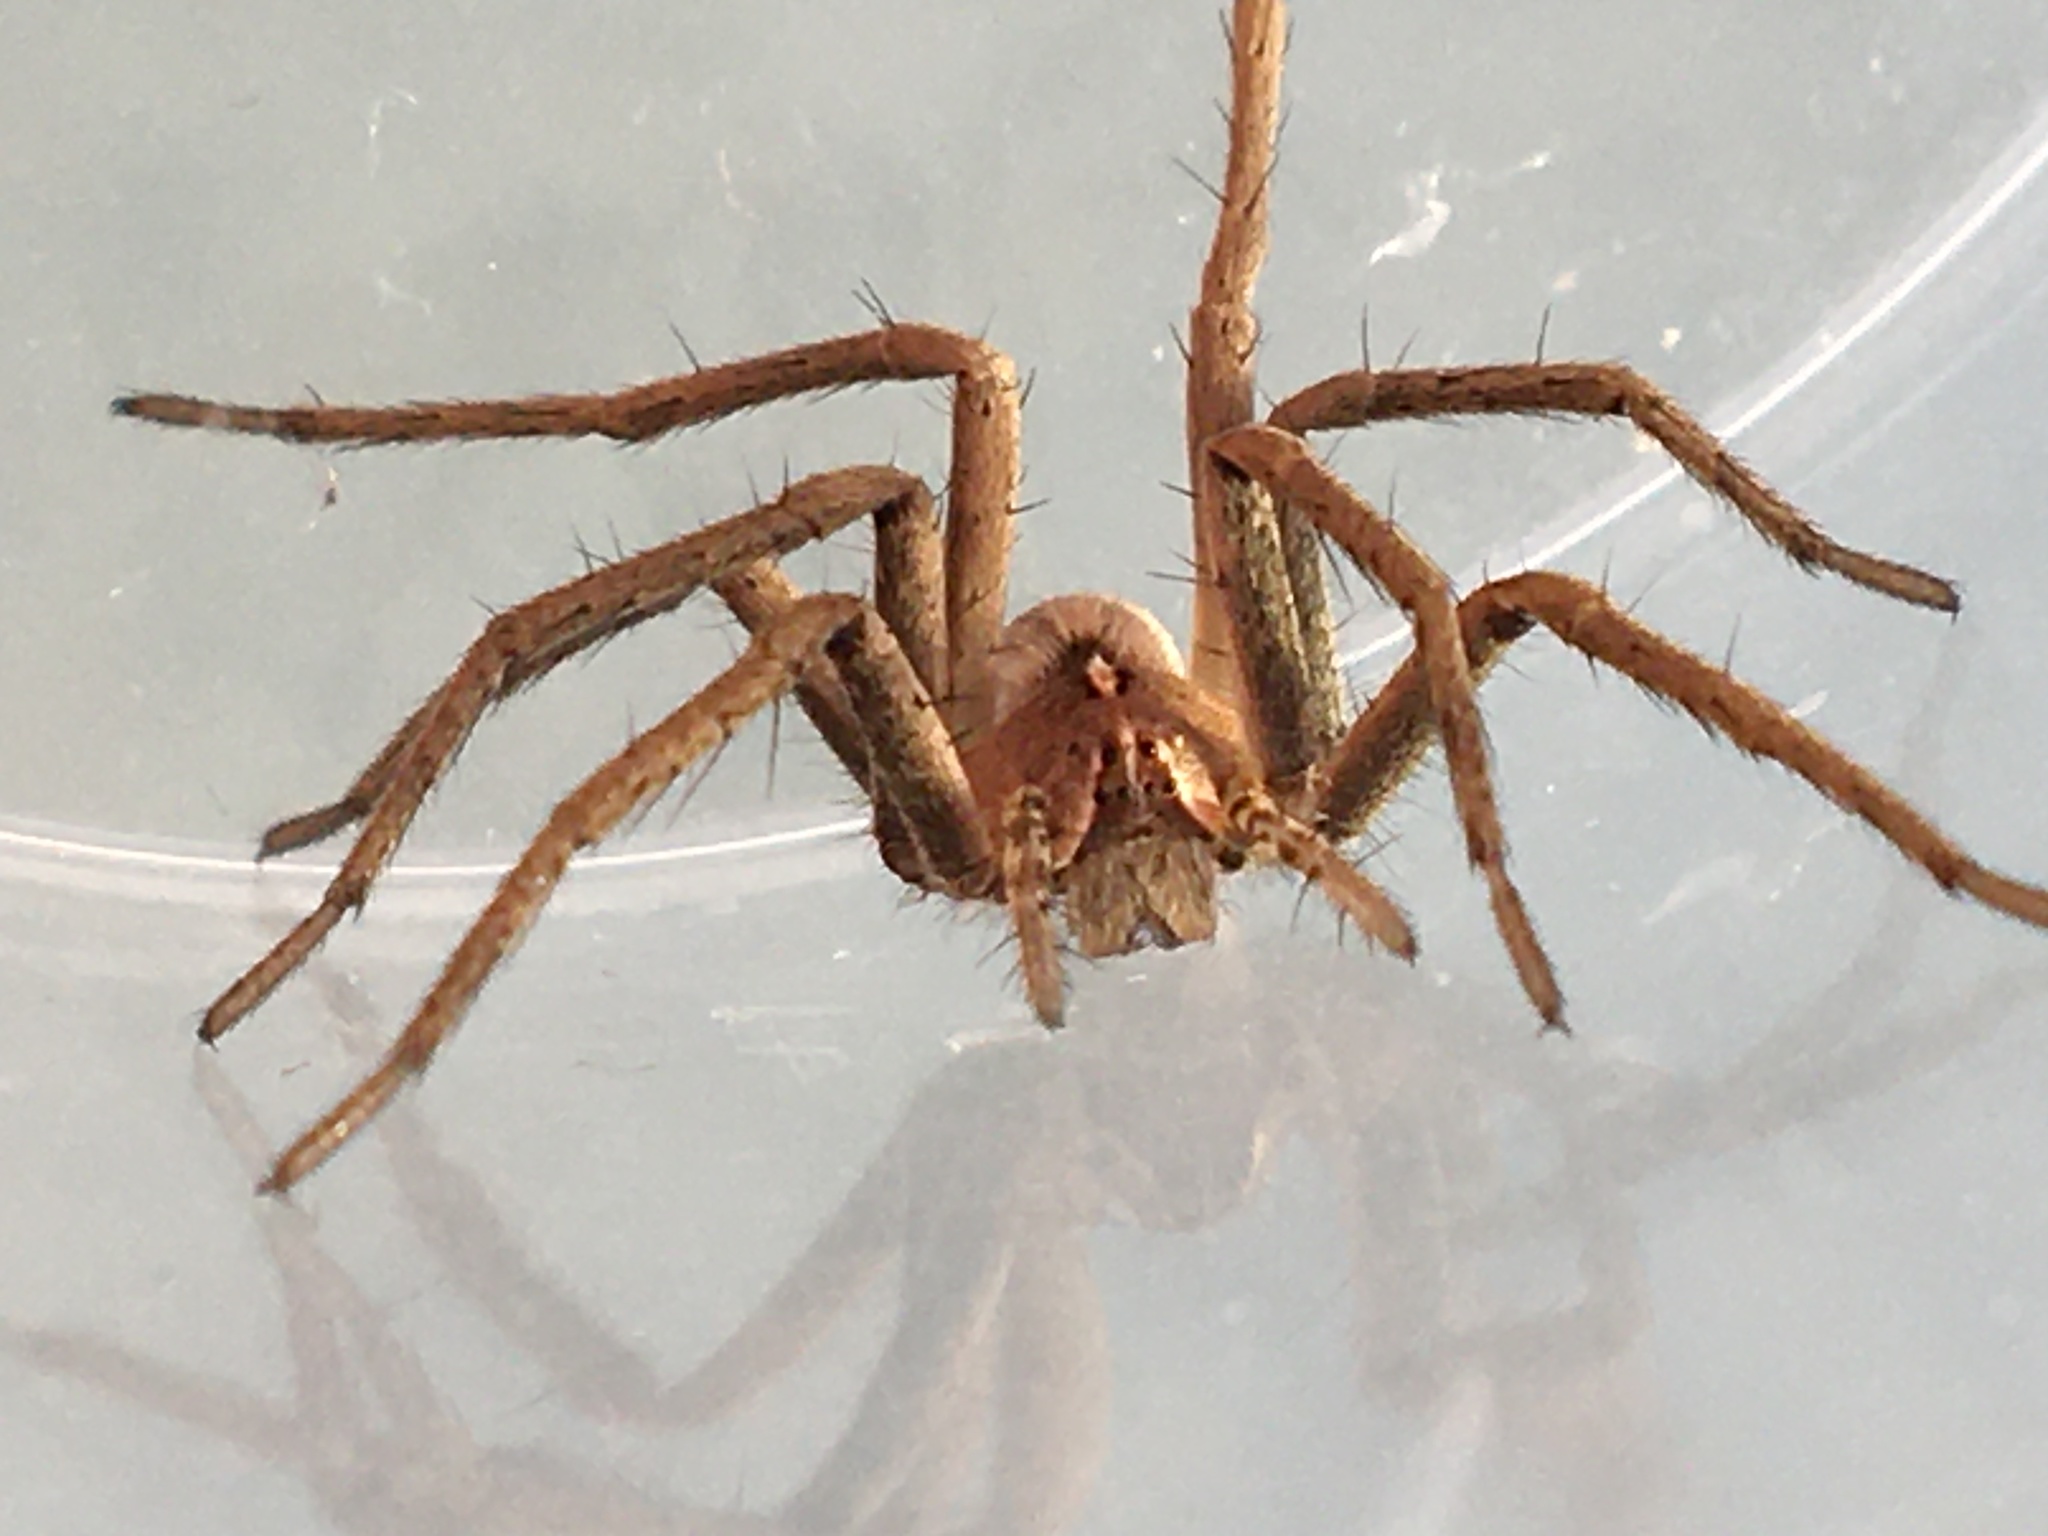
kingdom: Animalia
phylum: Arthropoda
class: Arachnida
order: Araneae
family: Pisauridae
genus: Pisaura
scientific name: Pisaura mirabilis
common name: Tent spider
